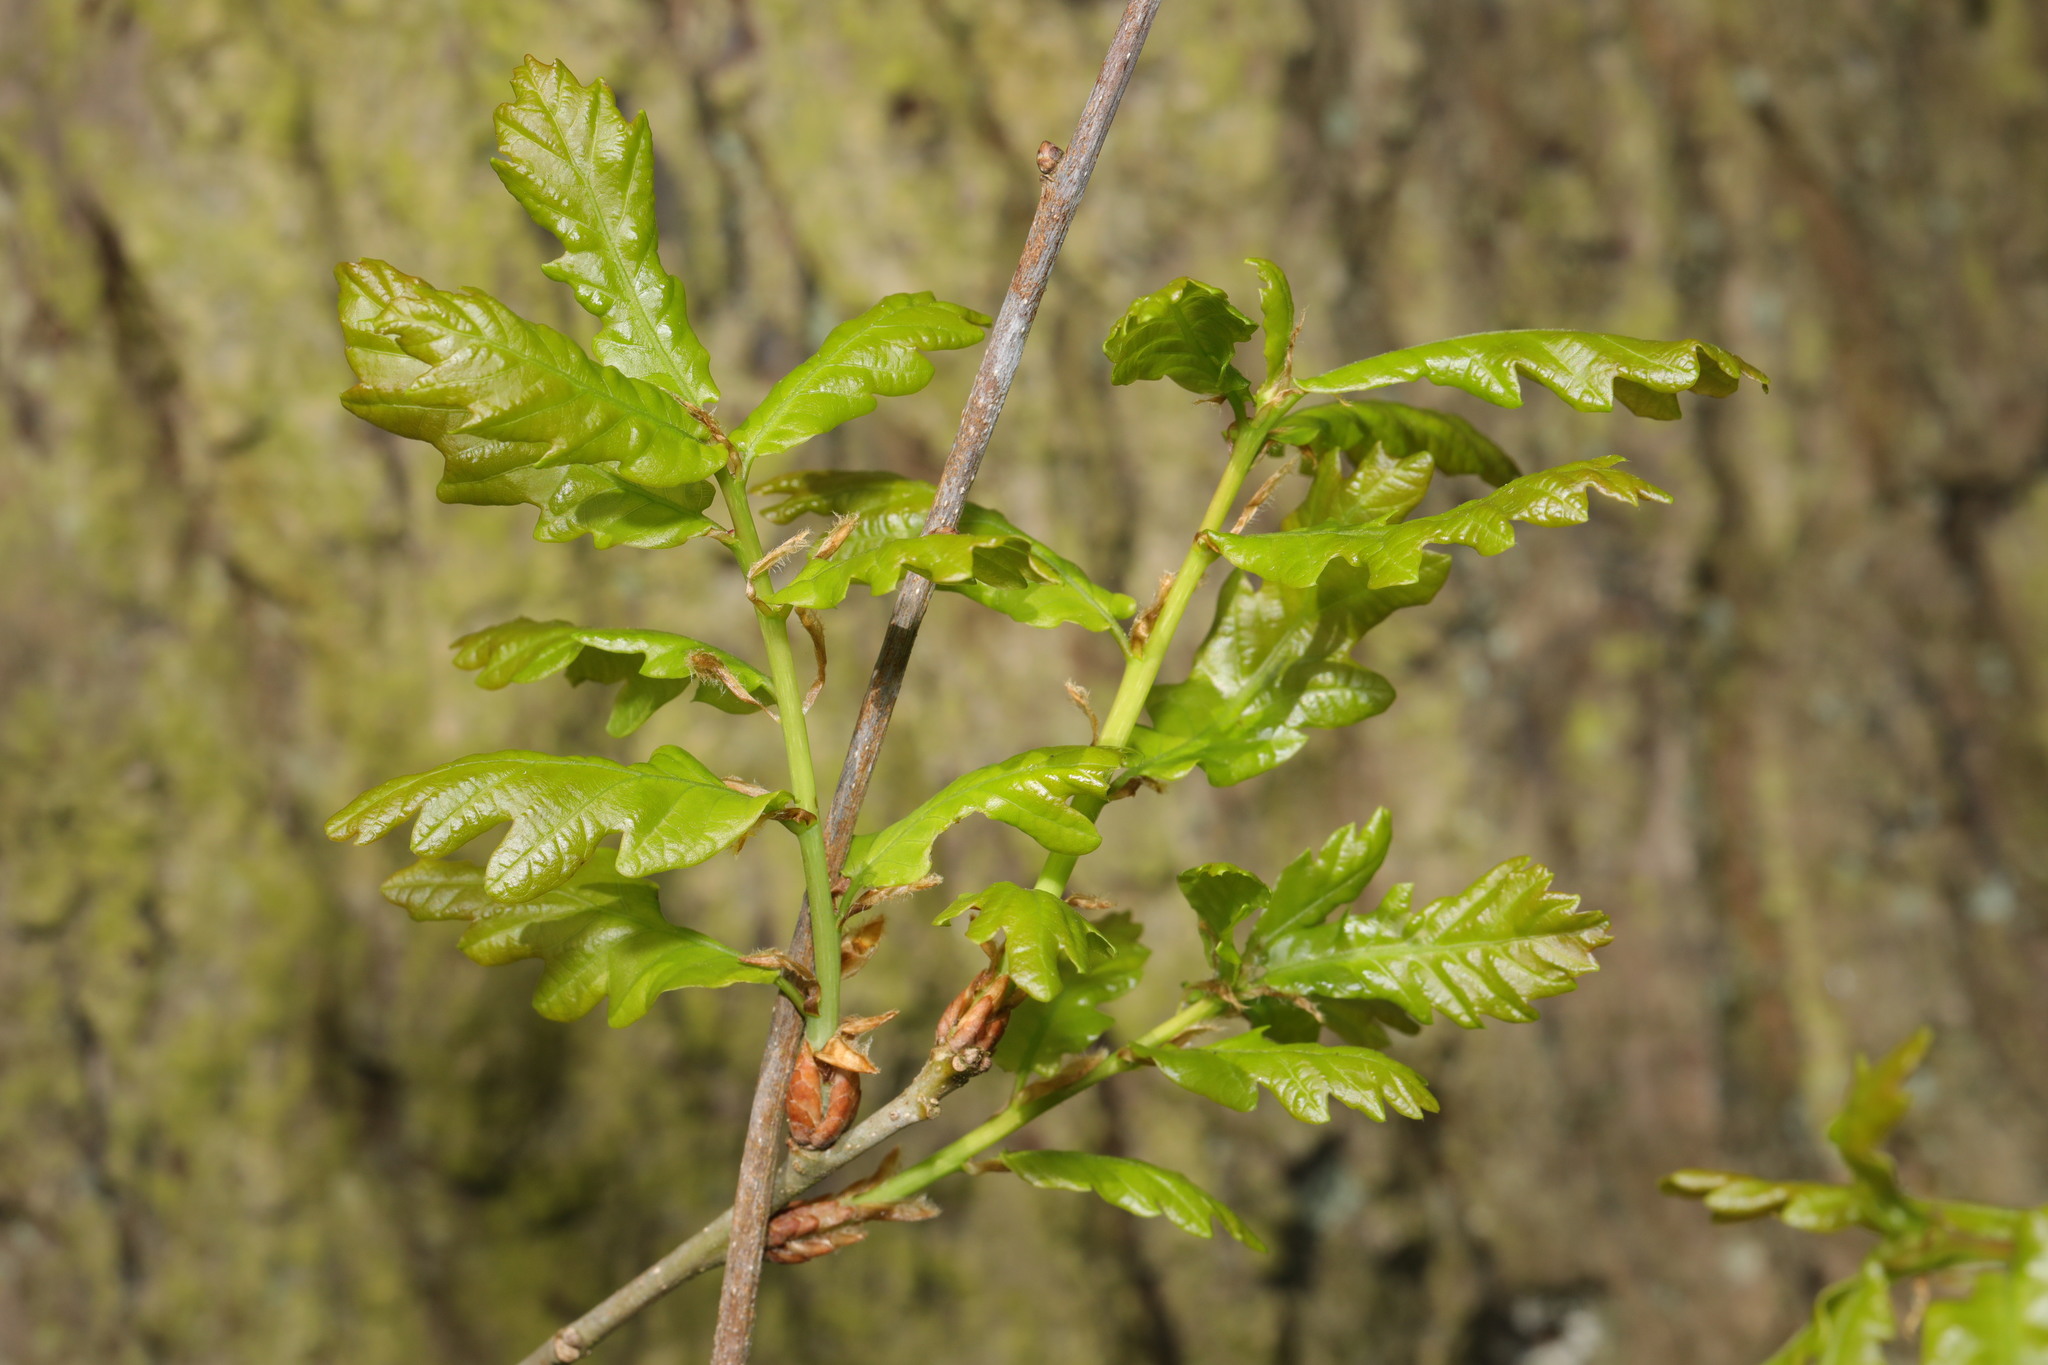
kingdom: Plantae
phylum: Tracheophyta
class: Magnoliopsida
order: Fagales
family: Fagaceae
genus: Quercus
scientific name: Quercus robur
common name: Pedunculate oak
